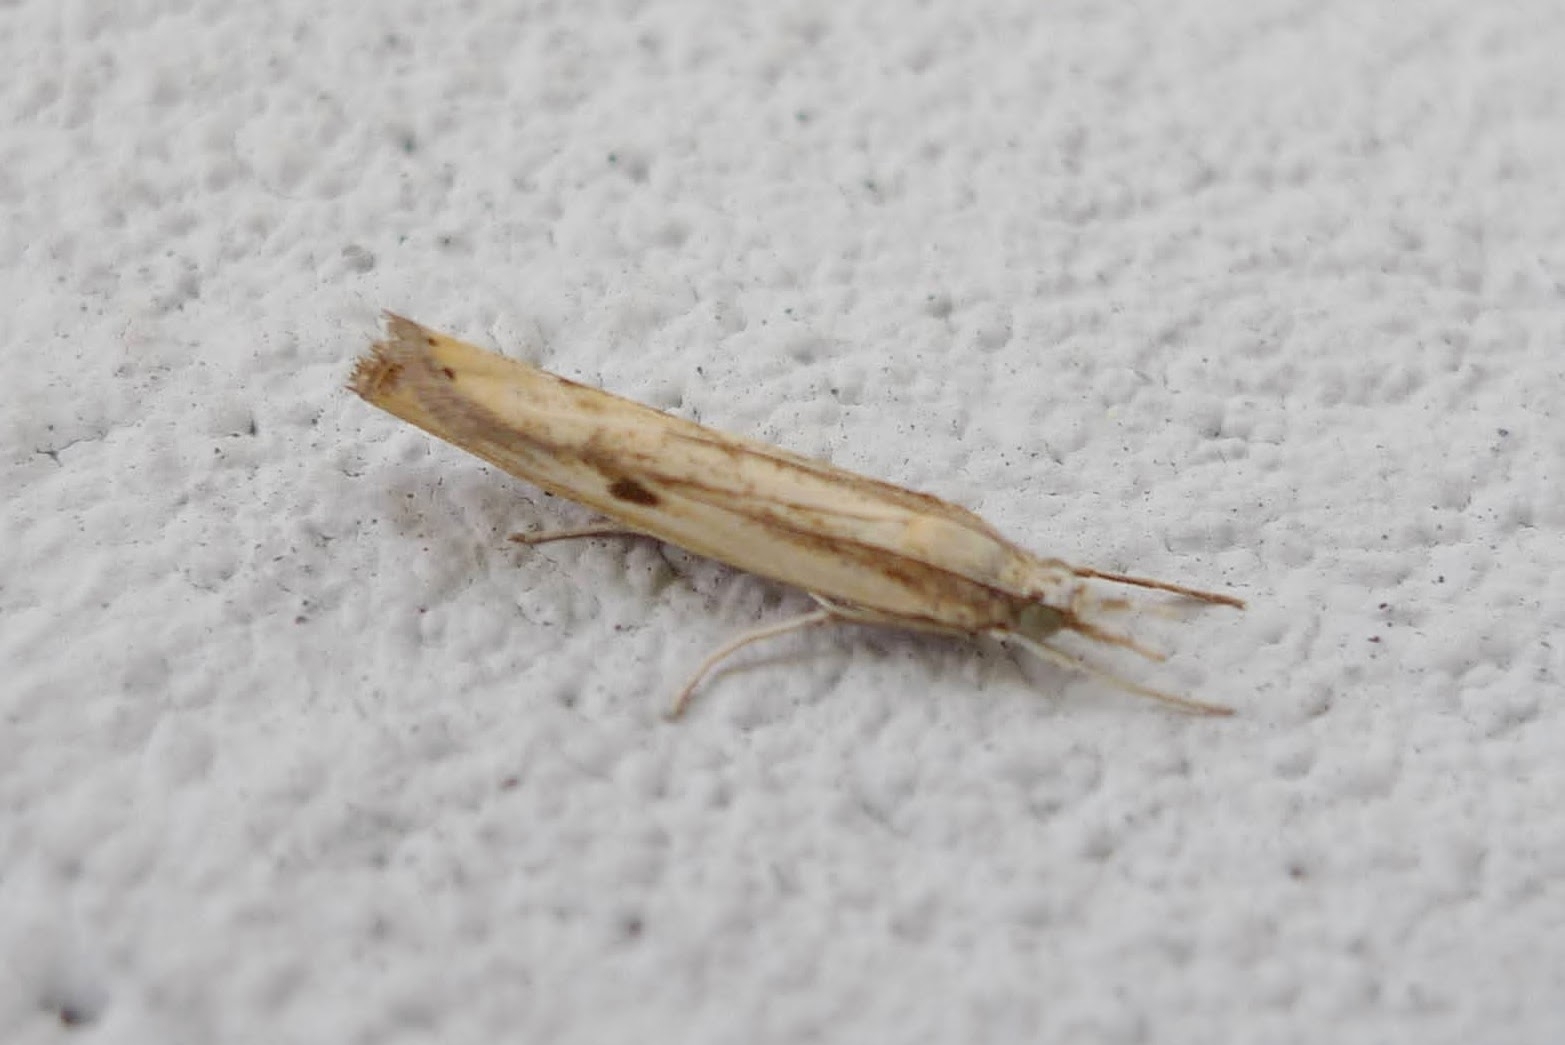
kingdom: Animalia
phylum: Arthropoda
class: Insecta
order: Lepidoptera
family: Crambidae
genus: Agriphila
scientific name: Agriphila inquinatella
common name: Barred grass-veneer
